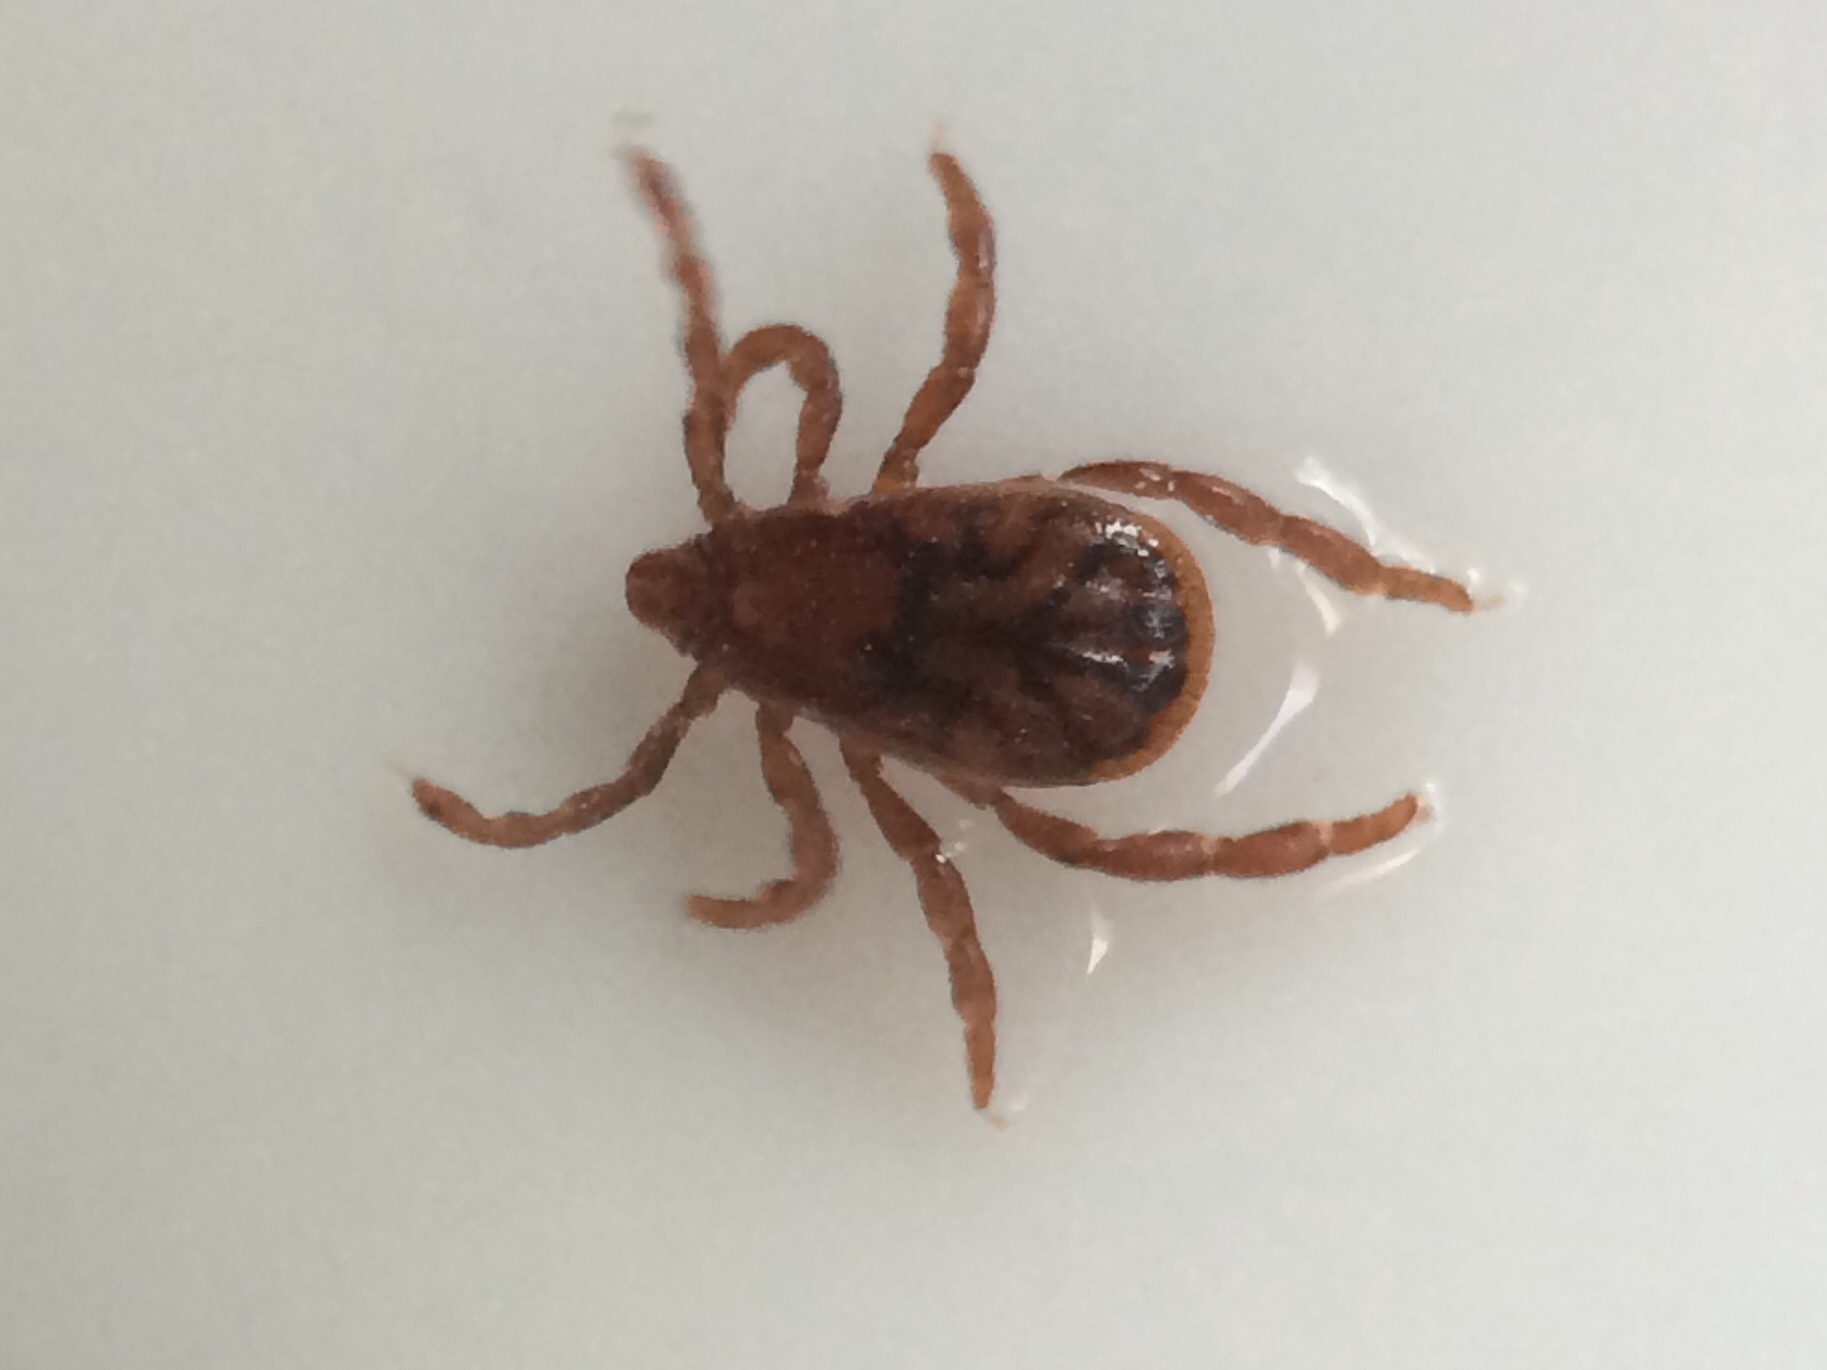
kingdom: Animalia
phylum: Arthropoda
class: Arachnida
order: Ixodida
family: Ixodidae
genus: Rhipicephalus
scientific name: Rhipicephalus sanguineus
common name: Brown dog tick
